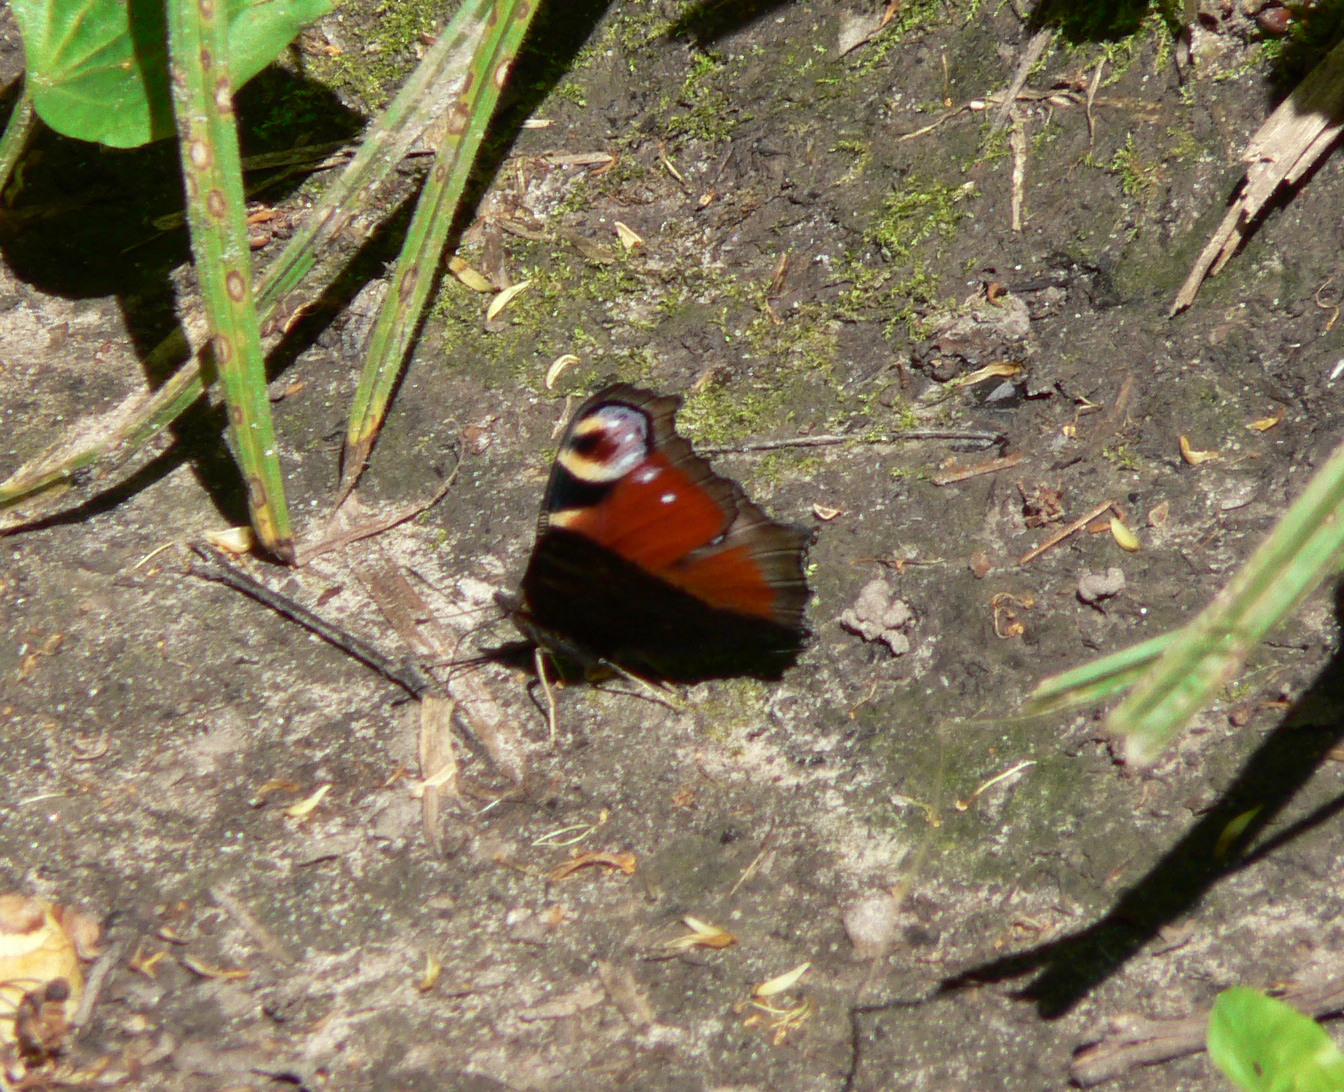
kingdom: Animalia
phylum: Arthropoda
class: Insecta
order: Lepidoptera
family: Nymphalidae
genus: Aglais
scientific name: Aglais io
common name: Peacock
